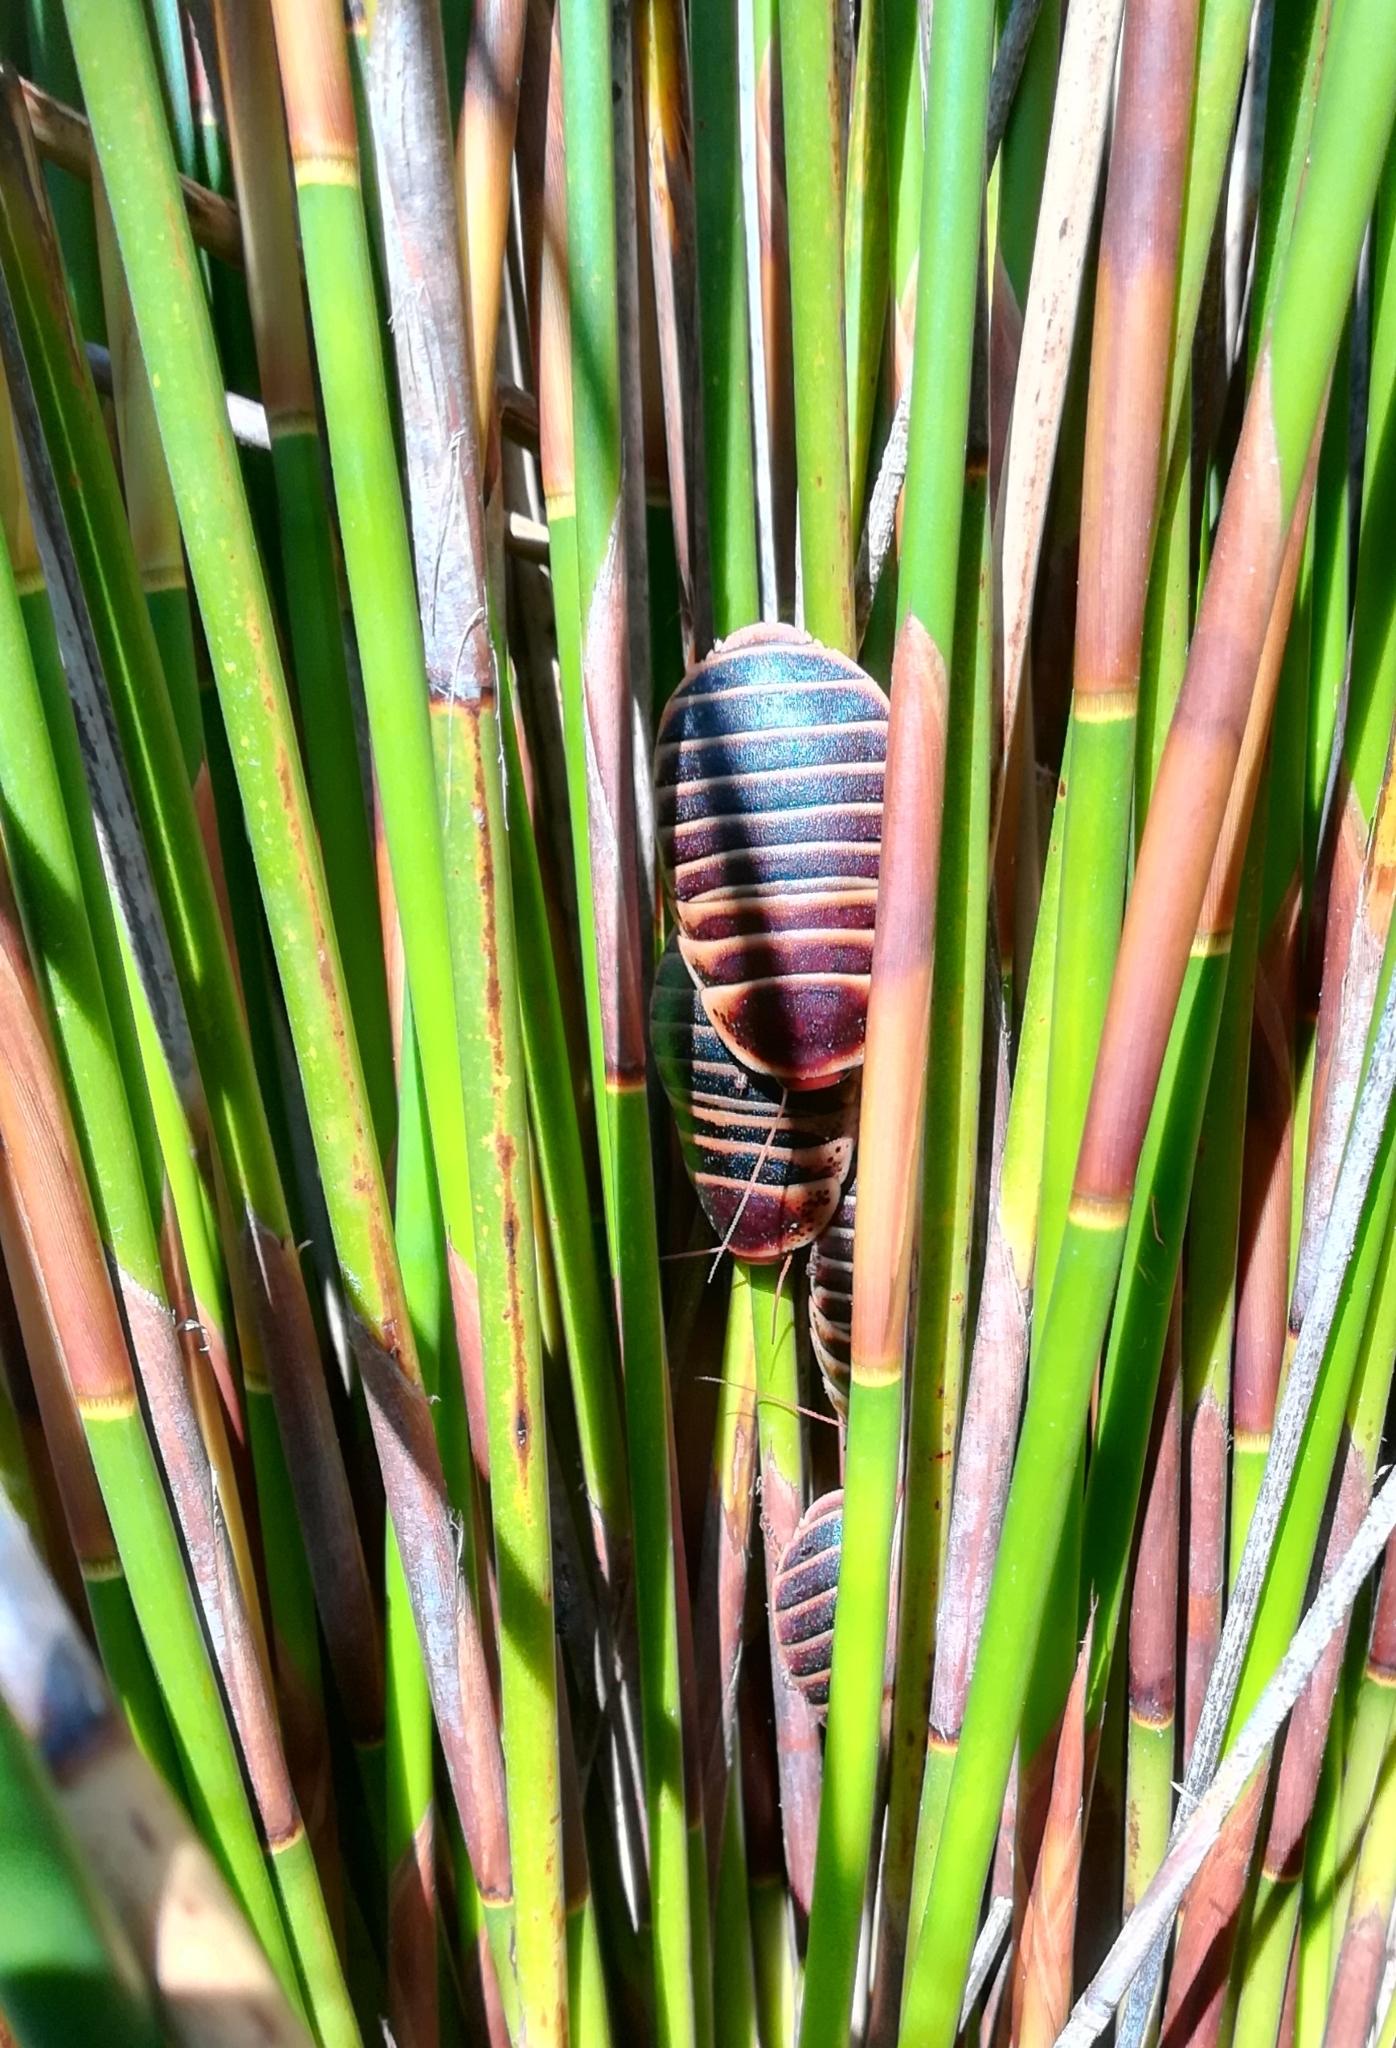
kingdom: Animalia
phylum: Arthropoda
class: Insecta
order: Blattodea
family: Blaberidae
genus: Aptera
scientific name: Aptera fusca
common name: Cape mountain cockroach
